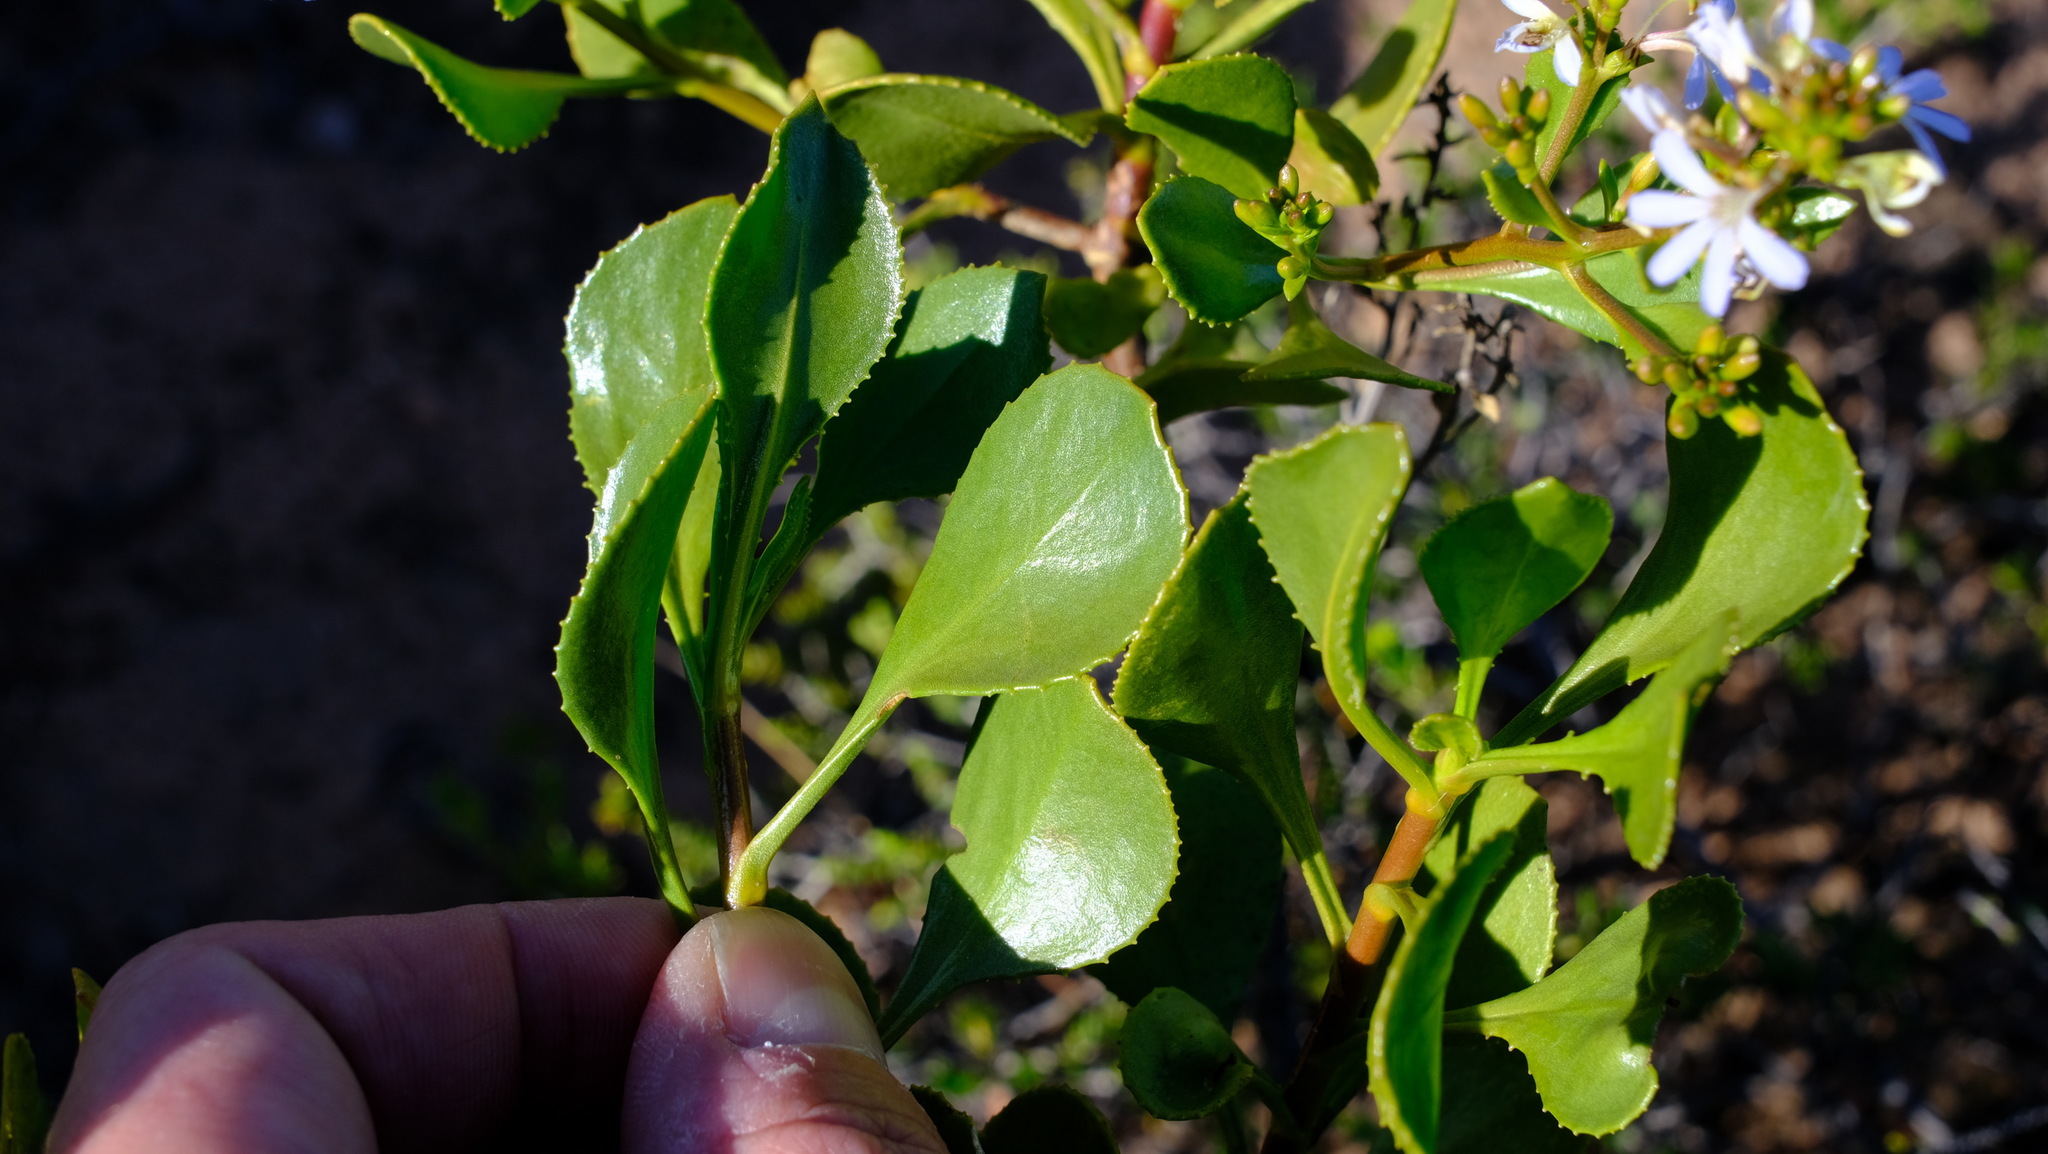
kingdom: Plantae
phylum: Tracheophyta
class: Magnoliopsida
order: Asterales
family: Goodeniaceae
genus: Scaevola
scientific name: Scaevola crassifolia
